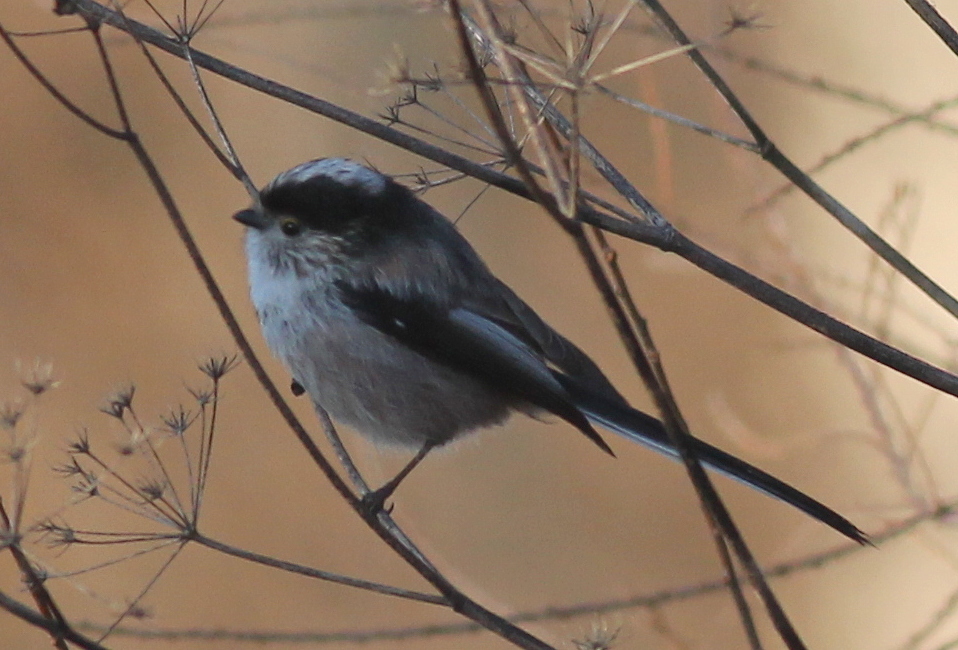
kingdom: Animalia
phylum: Chordata
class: Aves
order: Passeriformes
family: Aegithalidae
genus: Aegithalos
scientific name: Aegithalos caudatus
